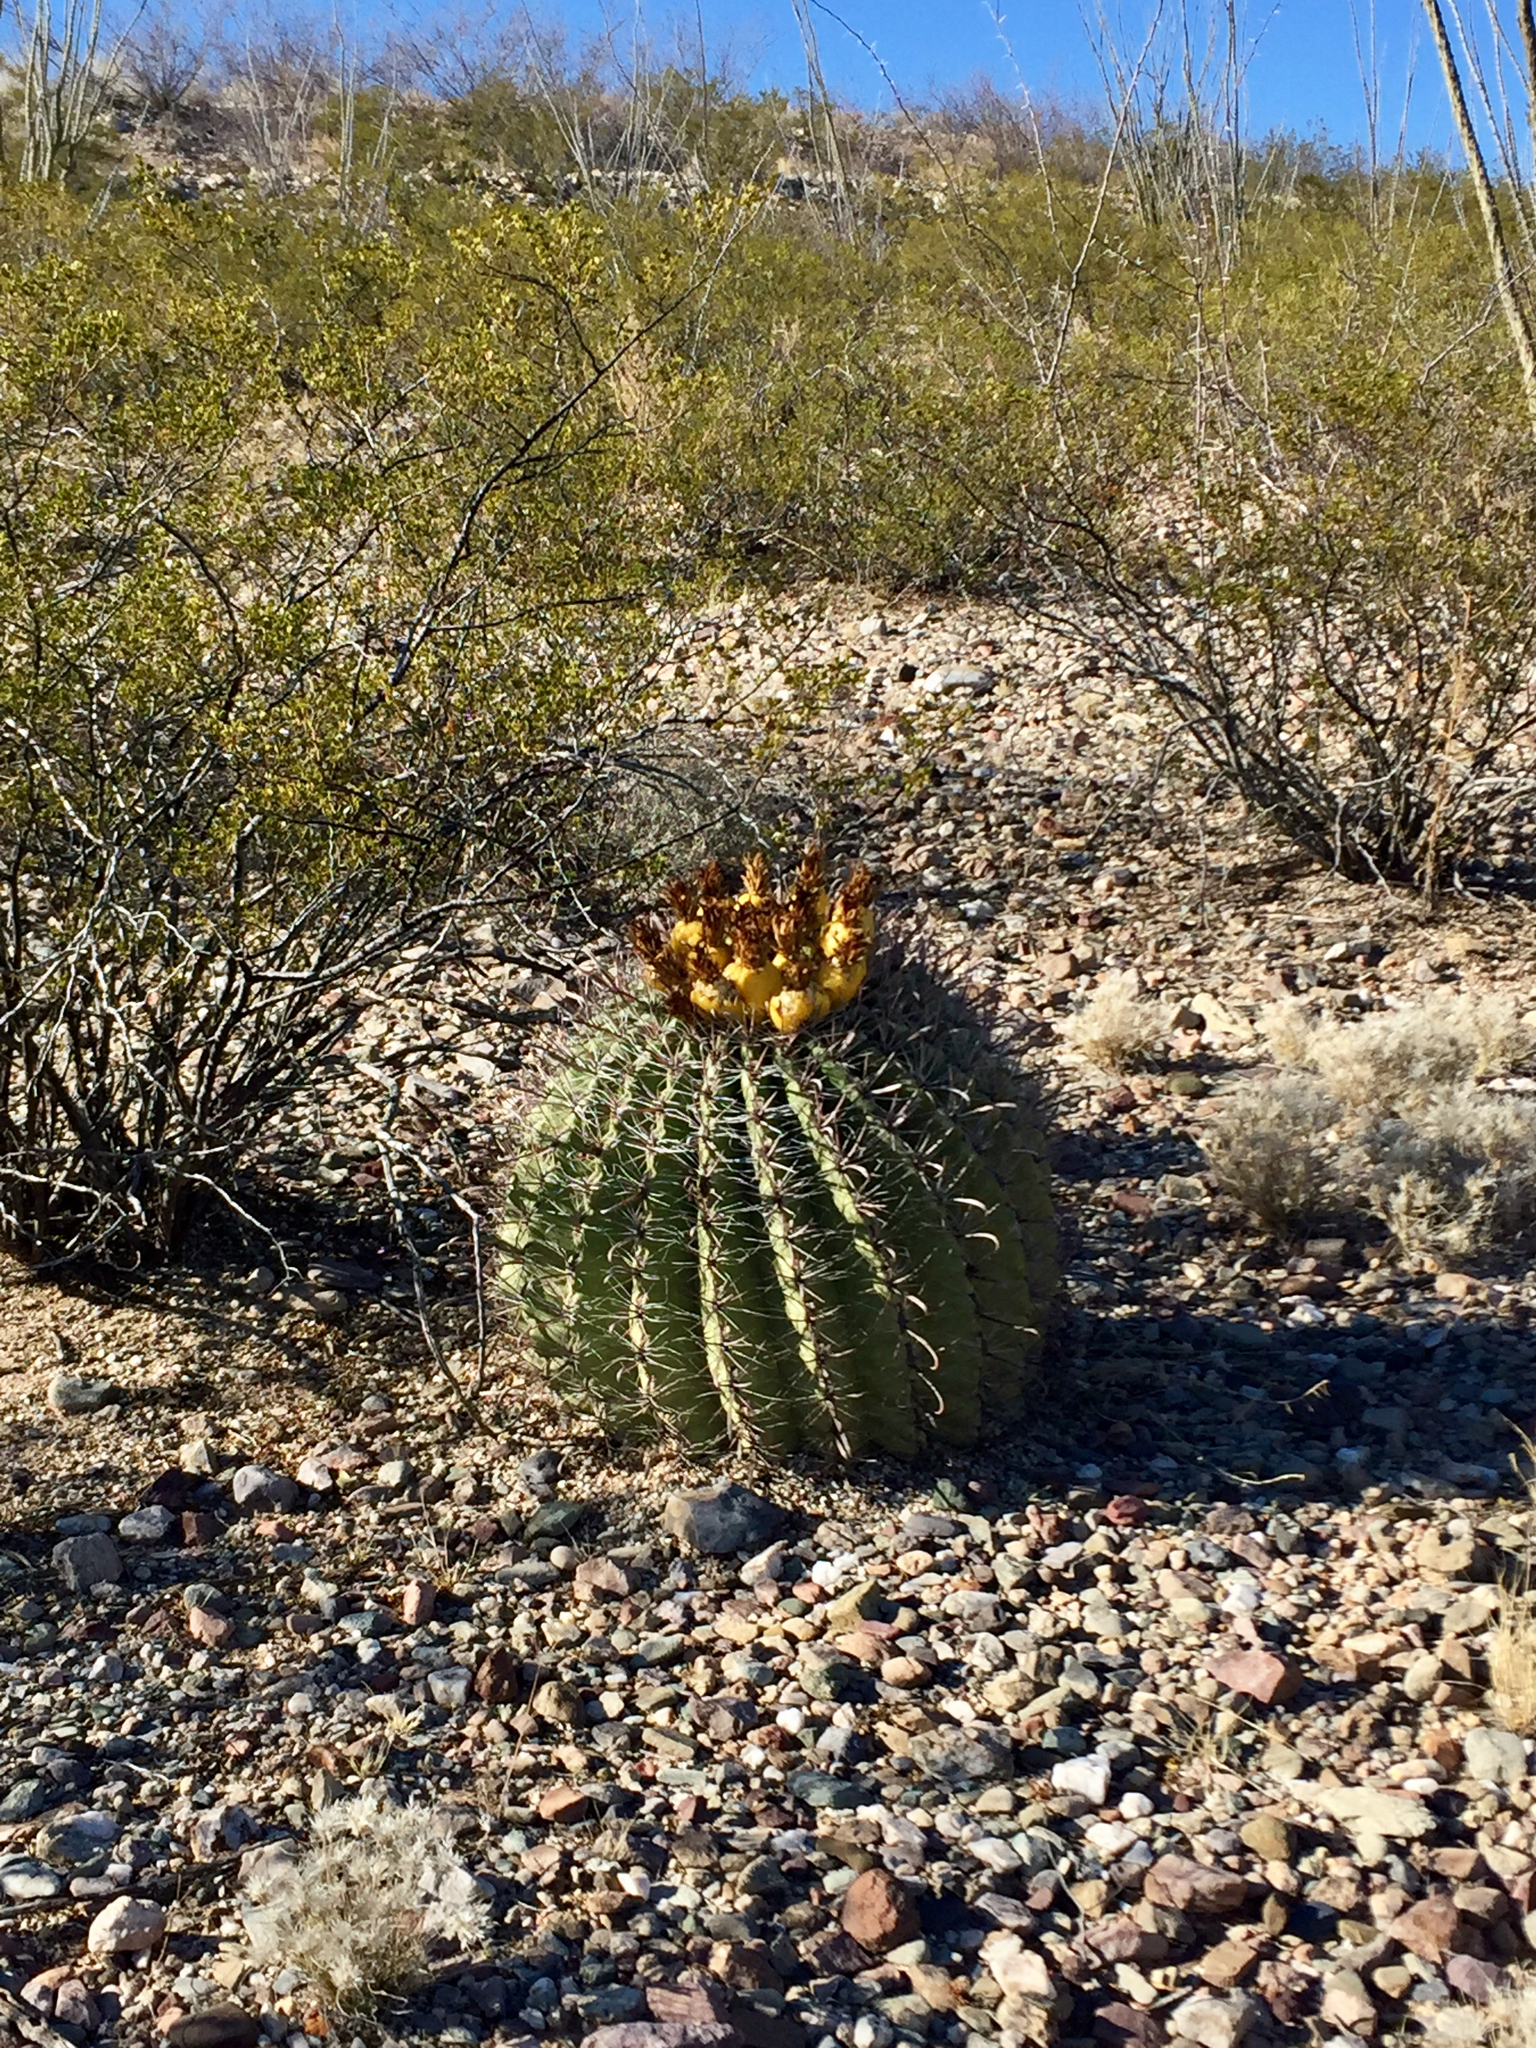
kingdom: Plantae
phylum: Tracheophyta
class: Magnoliopsida
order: Caryophyllales
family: Cactaceae
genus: Ferocactus
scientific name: Ferocactus wislizeni
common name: Candy barrel cactus
